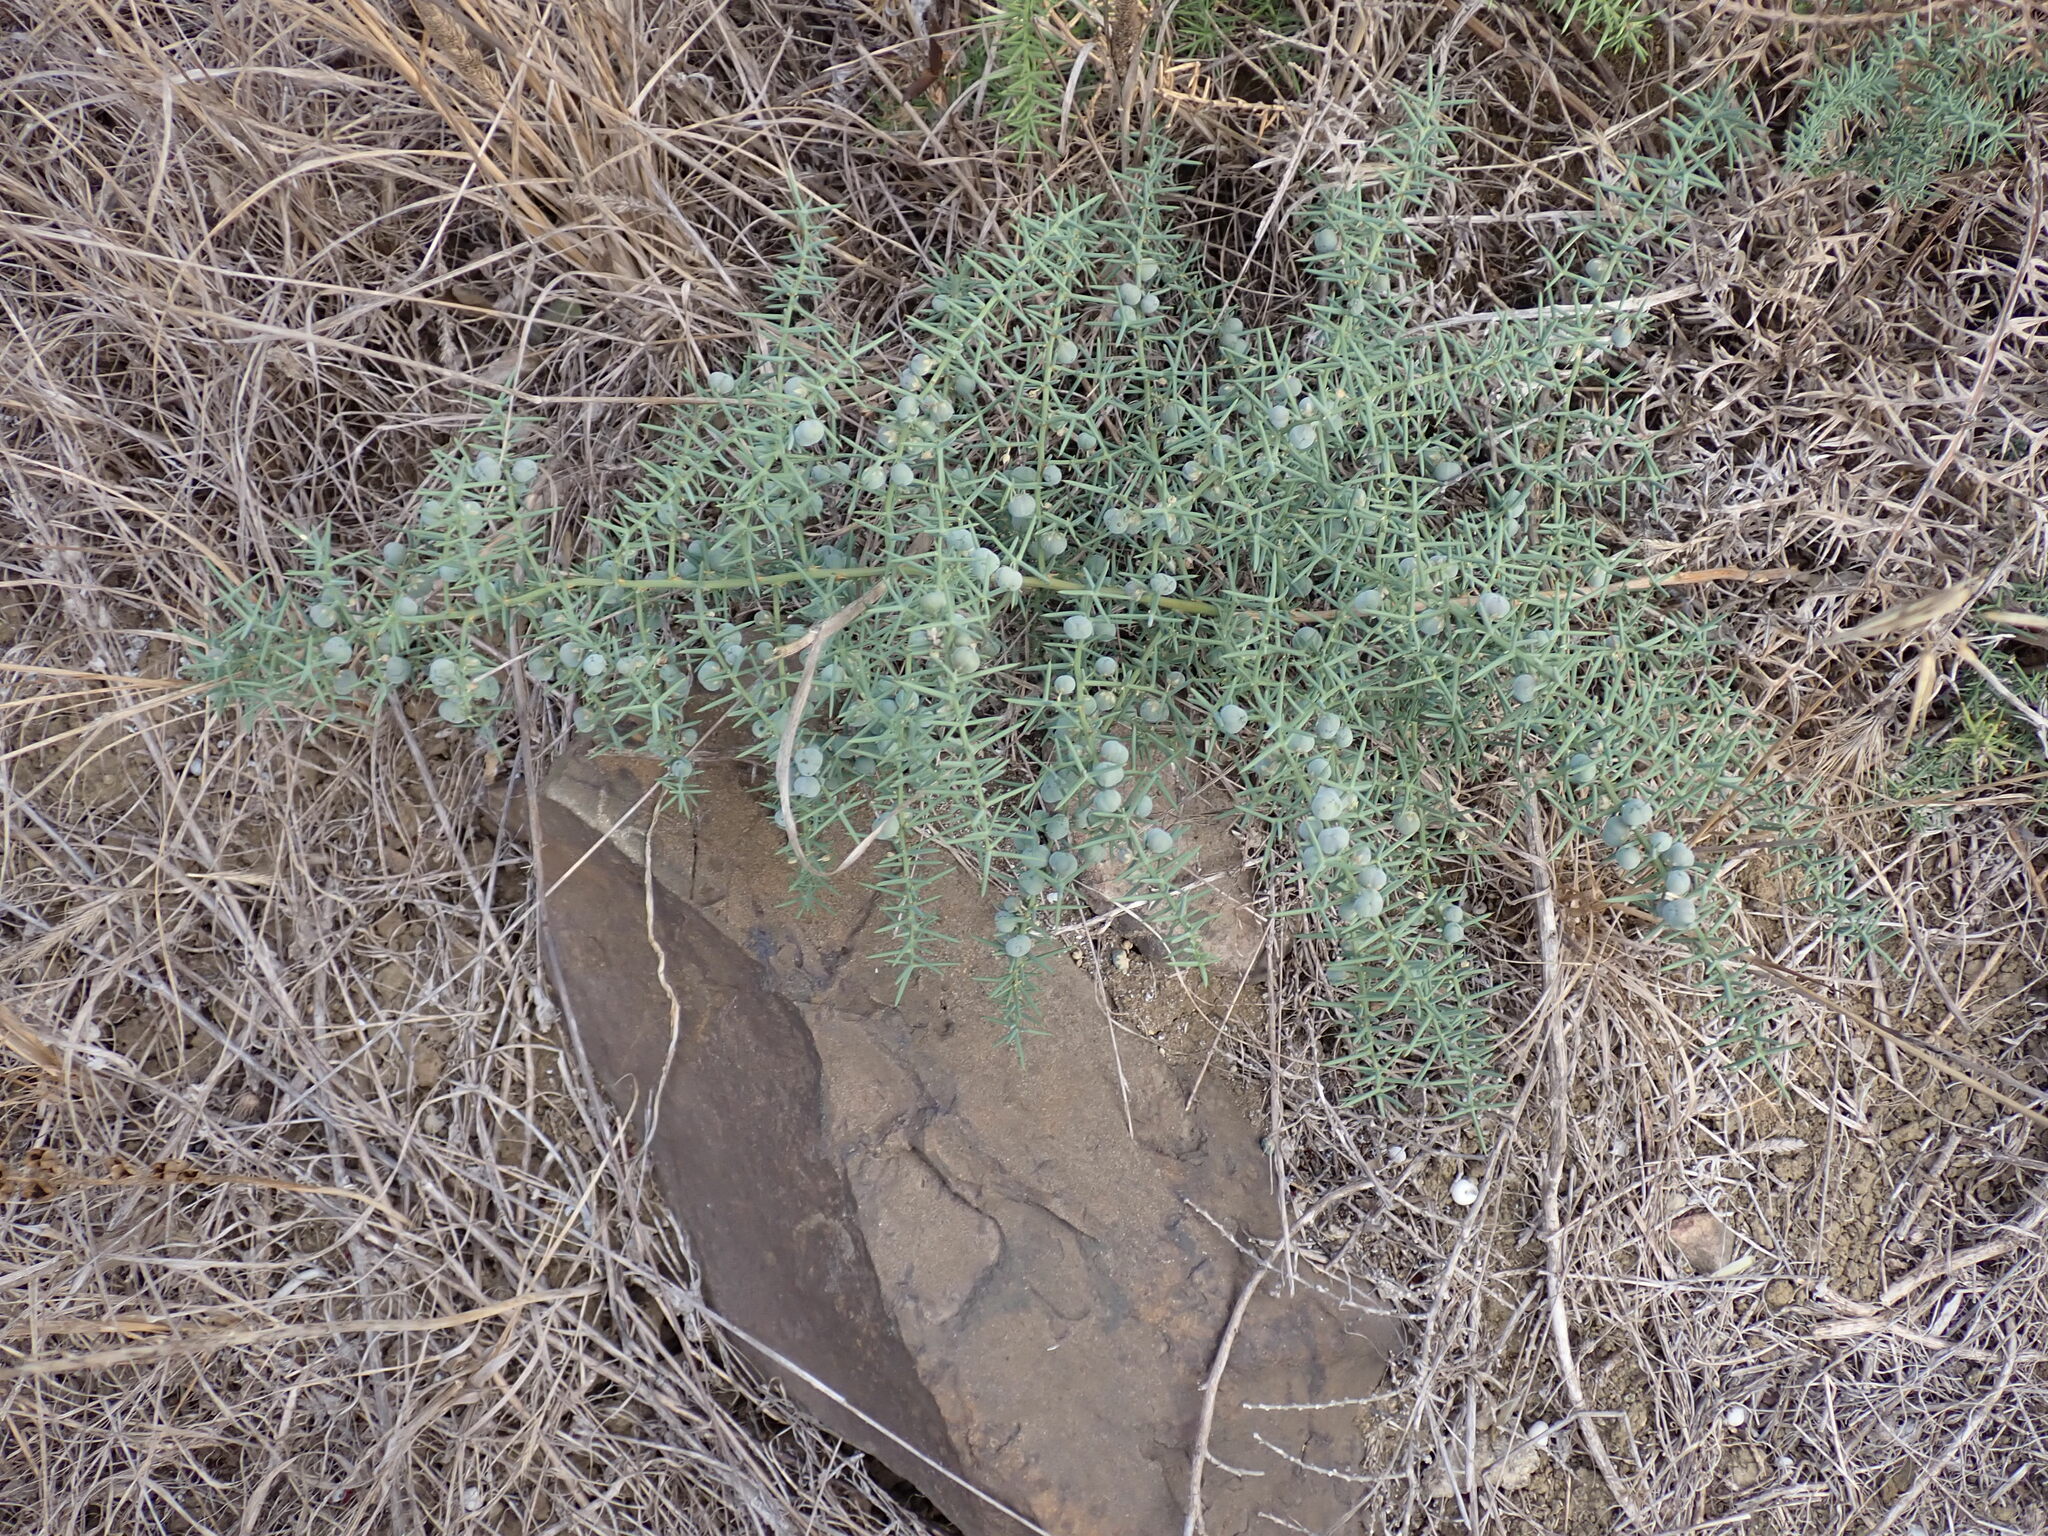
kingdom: Plantae
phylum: Tracheophyta
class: Liliopsida
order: Asparagales
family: Asparagaceae
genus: Asparagus
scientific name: Asparagus aphyllus
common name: Mediterranean asparagus
